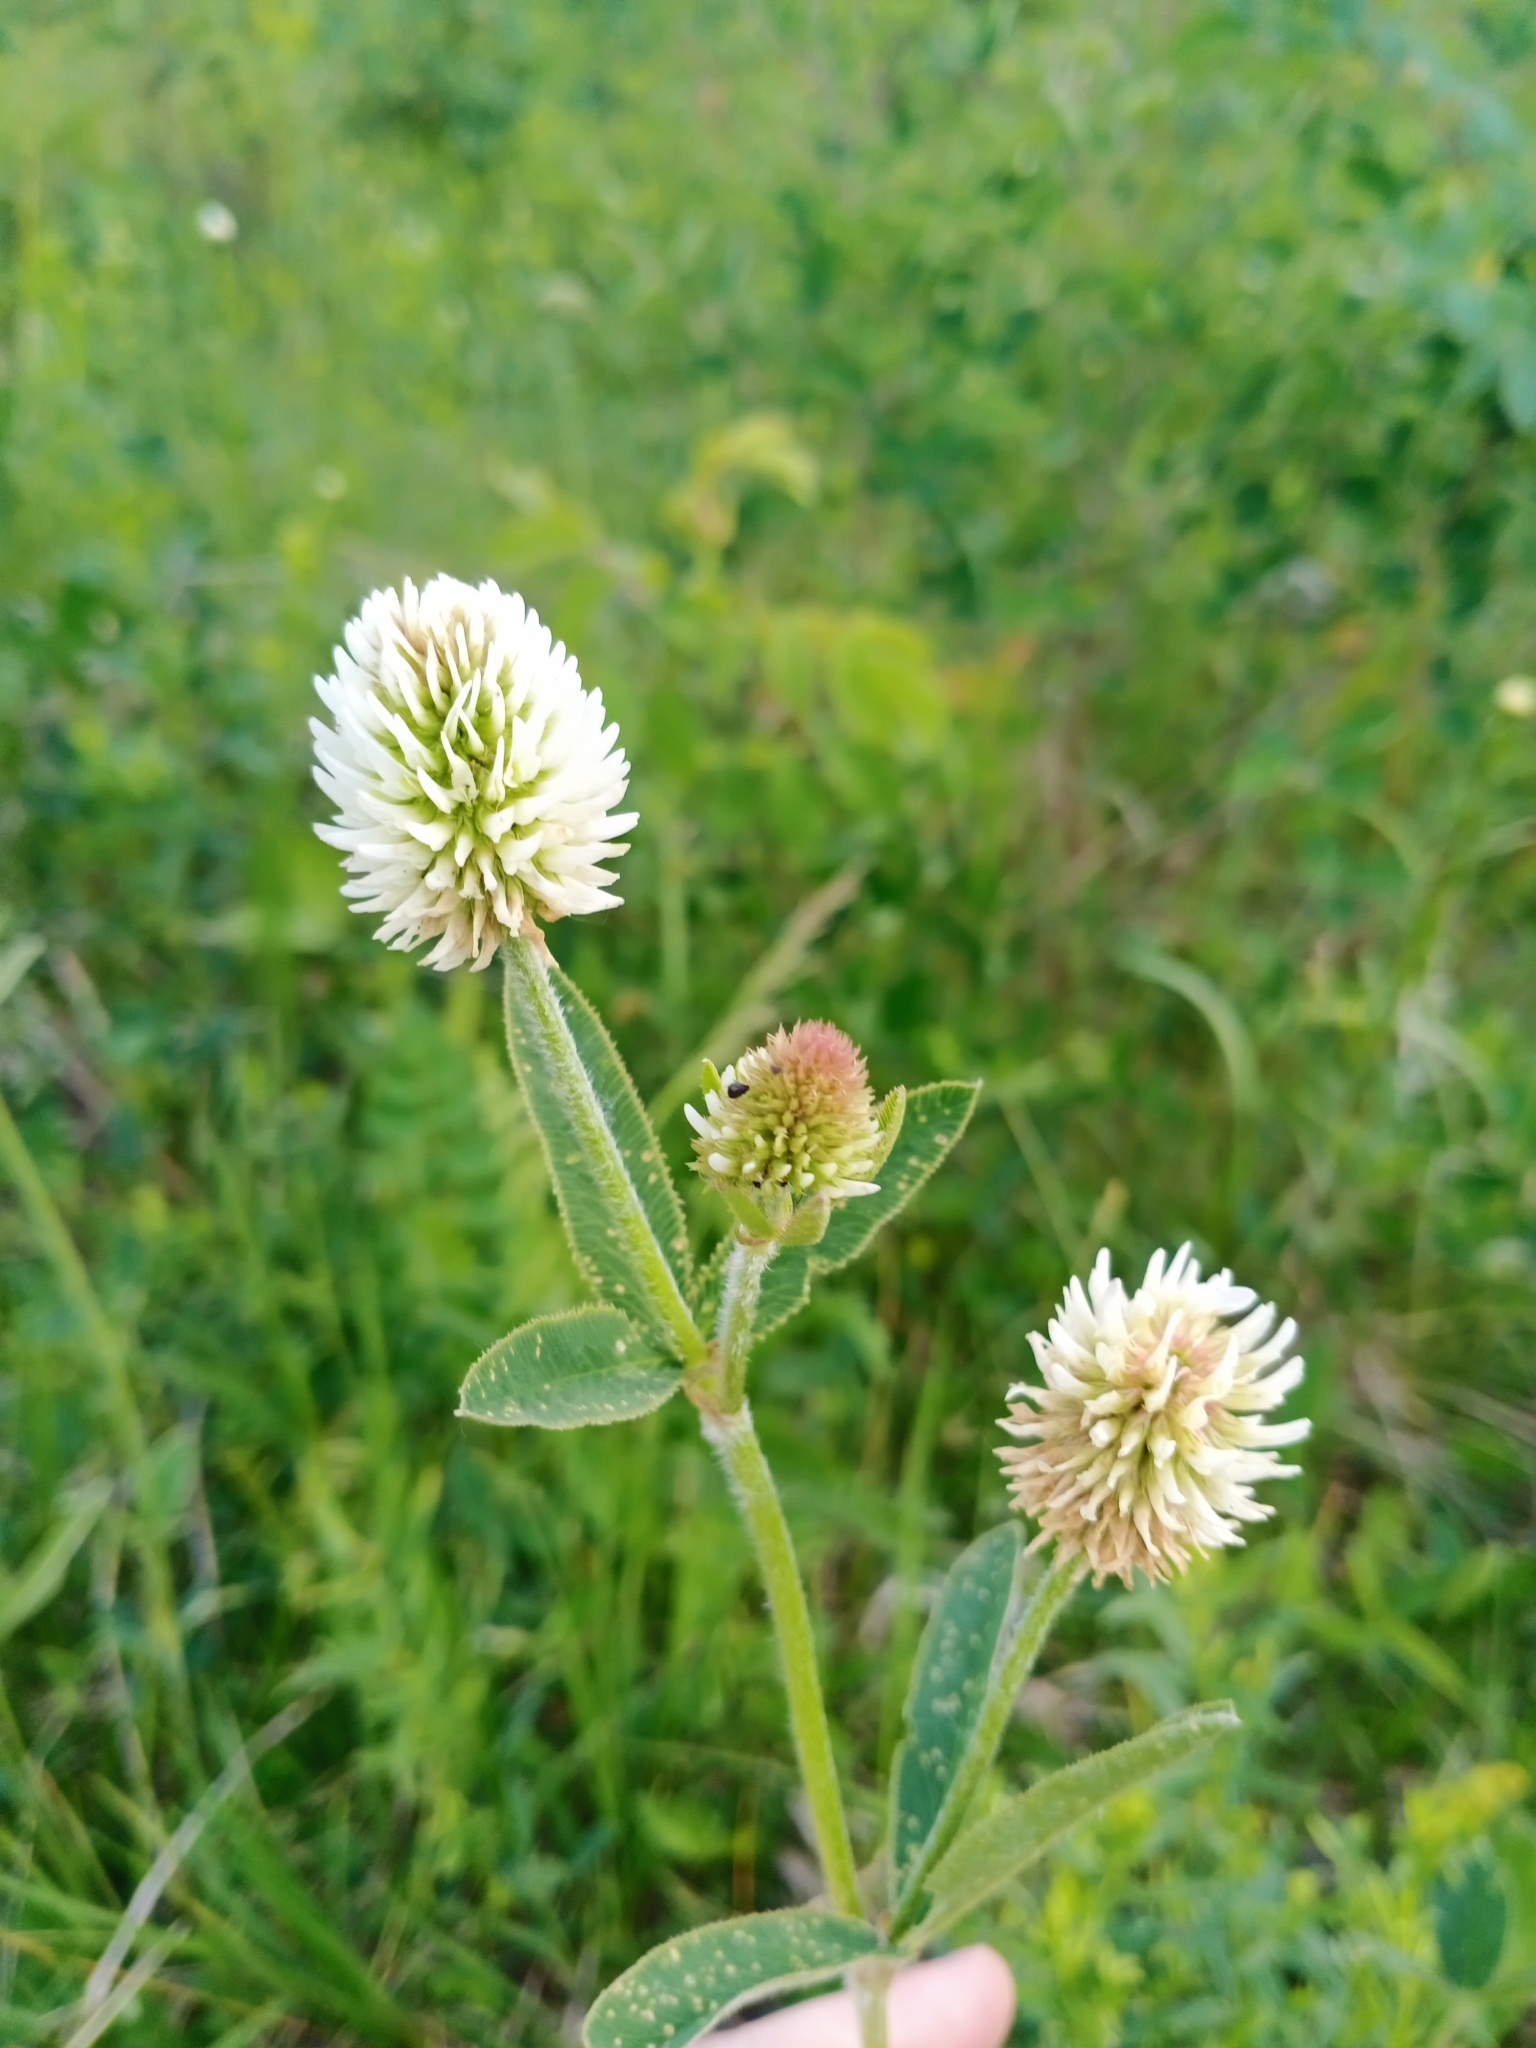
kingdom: Plantae
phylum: Tracheophyta
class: Magnoliopsida
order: Fabales
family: Fabaceae
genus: Trifolium
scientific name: Trifolium montanum
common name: Mountain clover
